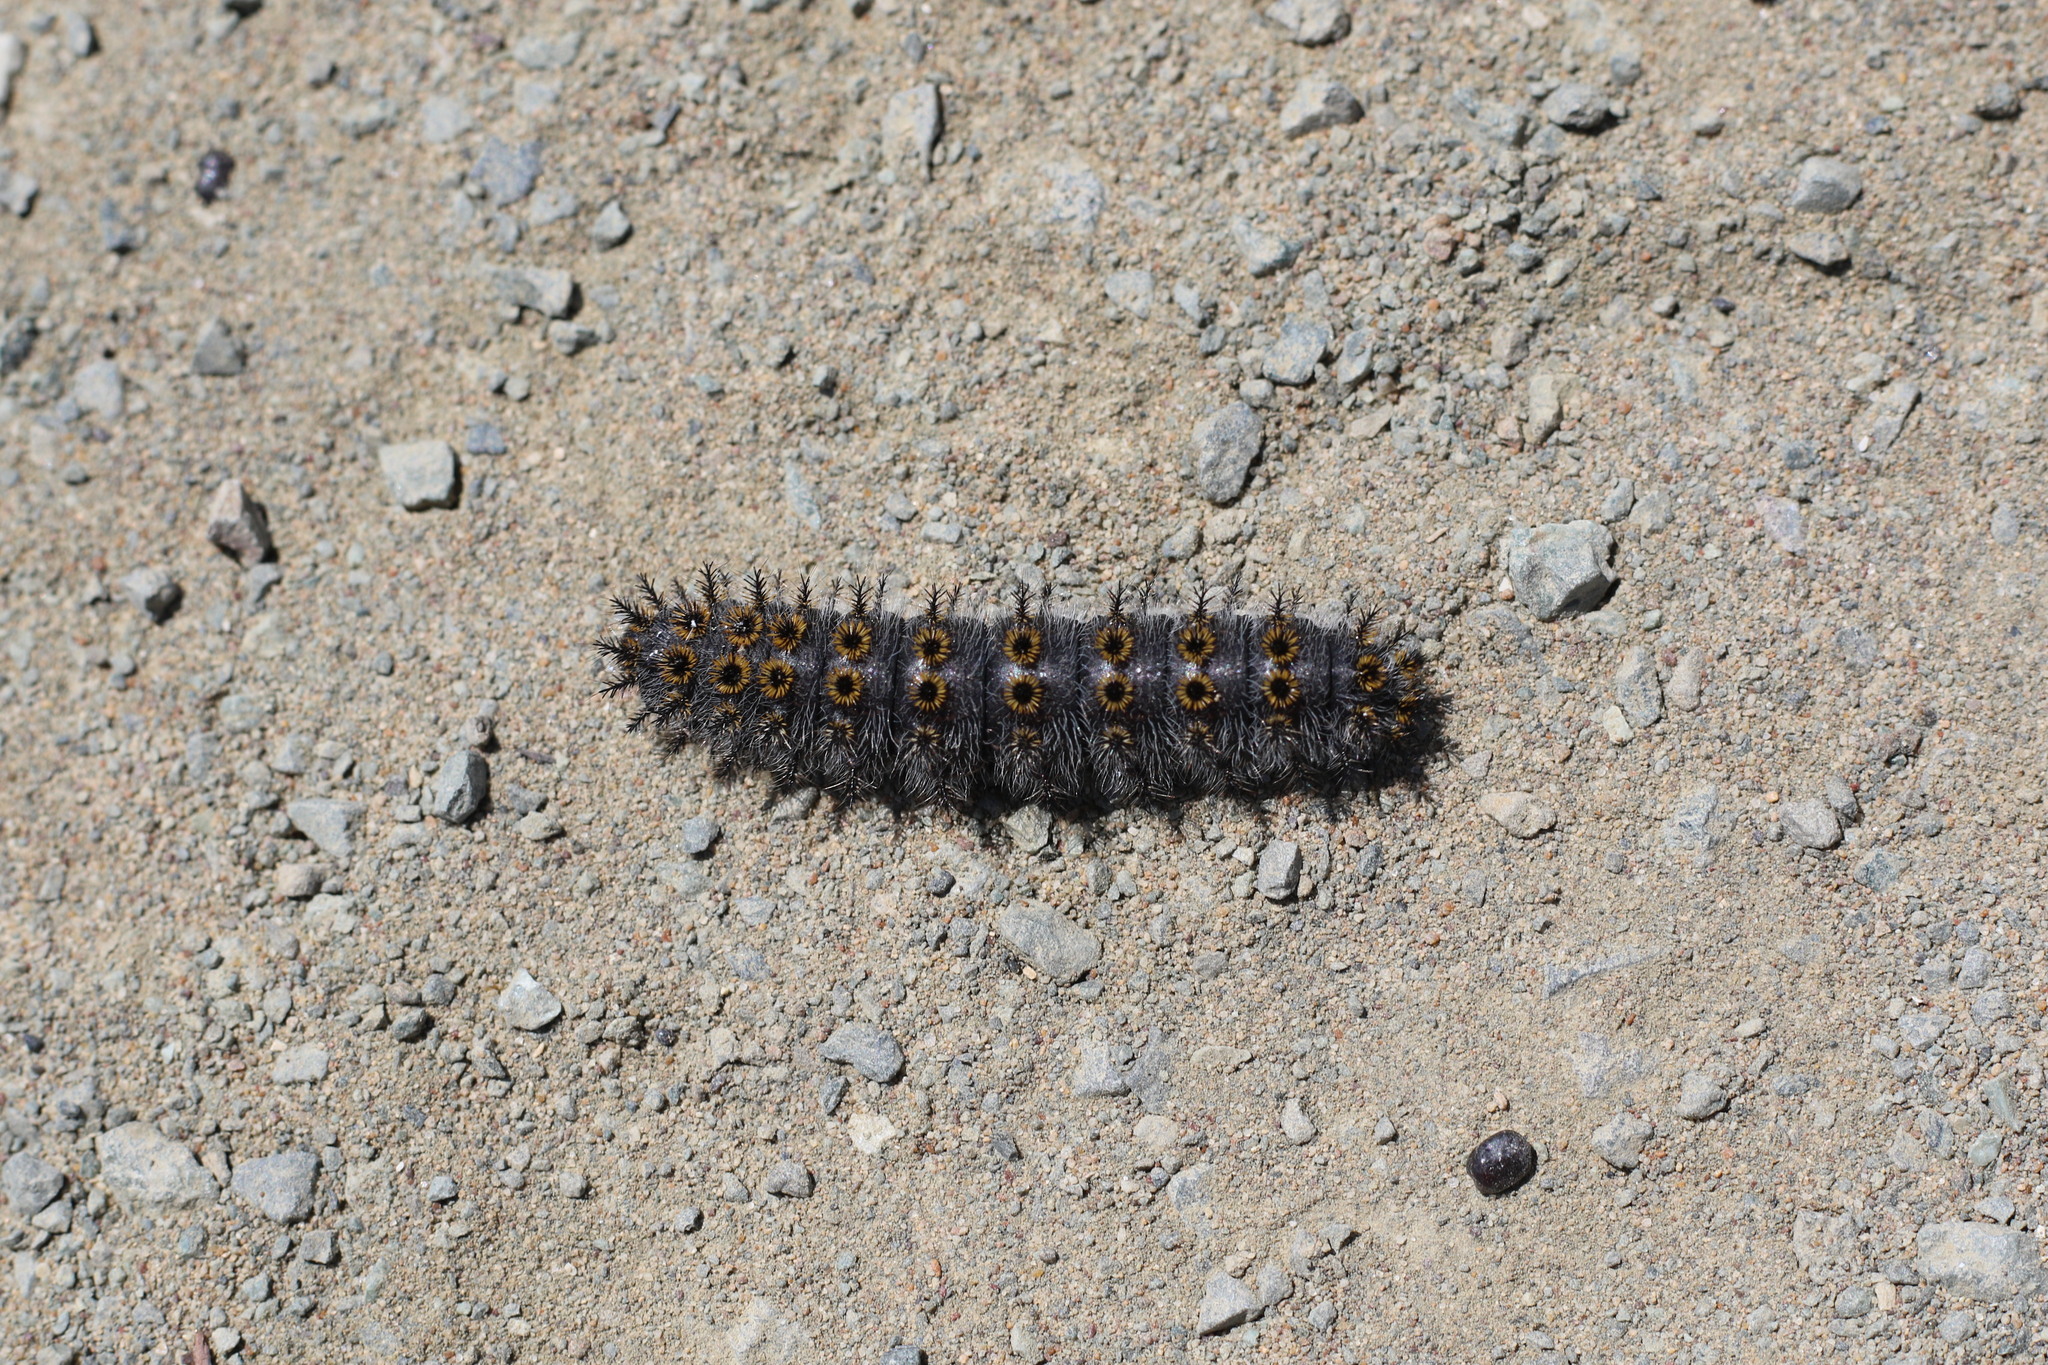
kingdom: Animalia
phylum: Arthropoda
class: Insecta
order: Lepidoptera
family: Saturniidae
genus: Hemileuca
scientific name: Hemileuca eglanterina
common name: Western sheepmoth
